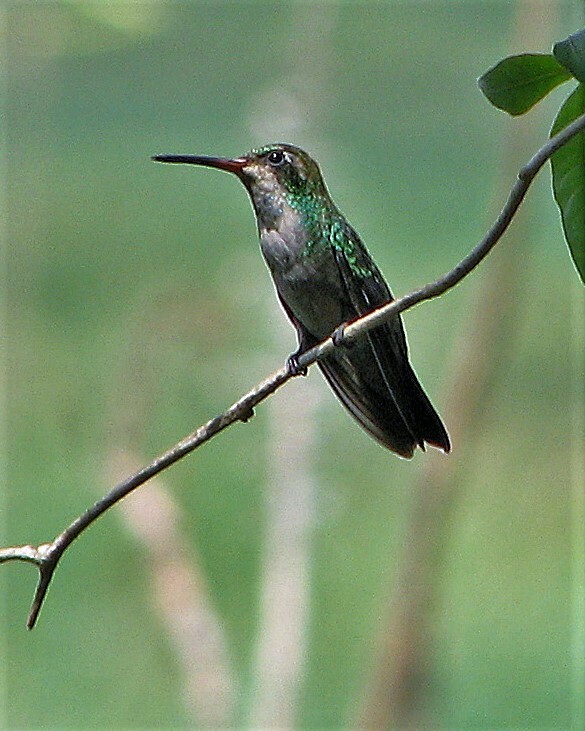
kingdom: Animalia
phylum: Chordata
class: Aves
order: Apodiformes
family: Trochilidae
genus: Chlorostilbon
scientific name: Chlorostilbon lucidus
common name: Glittering-bellied emerald
